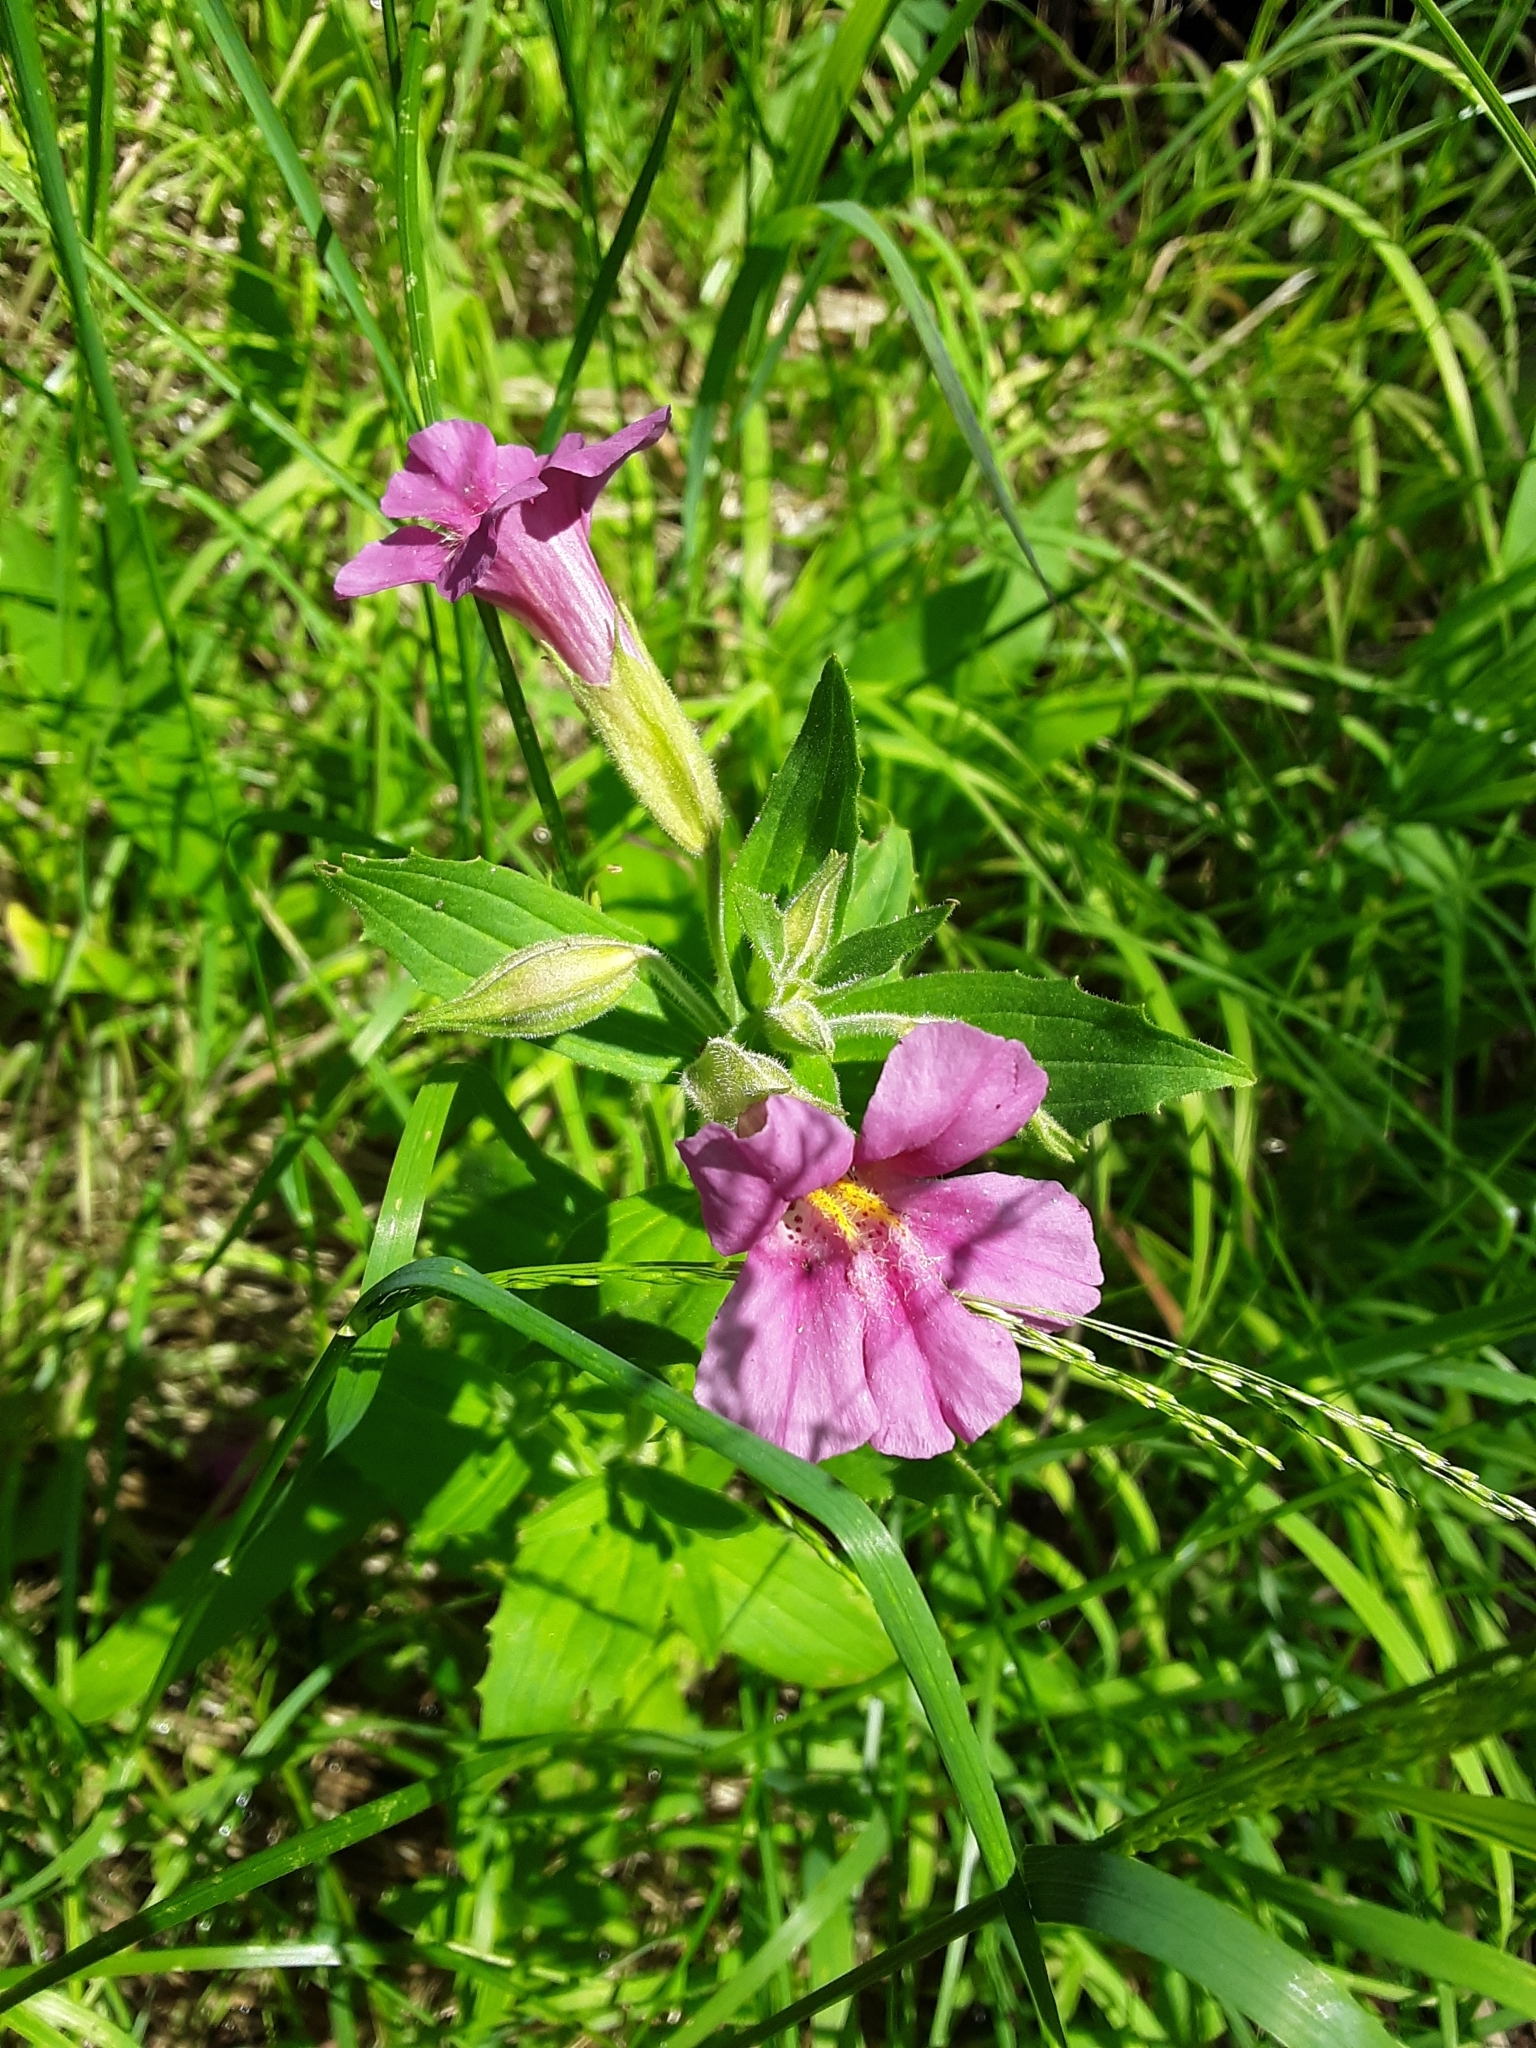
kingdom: Plantae
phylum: Tracheophyta
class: Magnoliopsida
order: Lamiales
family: Phrymaceae
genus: Erythranthe
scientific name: Erythranthe lewisii
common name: Lewis's monkey-flower
